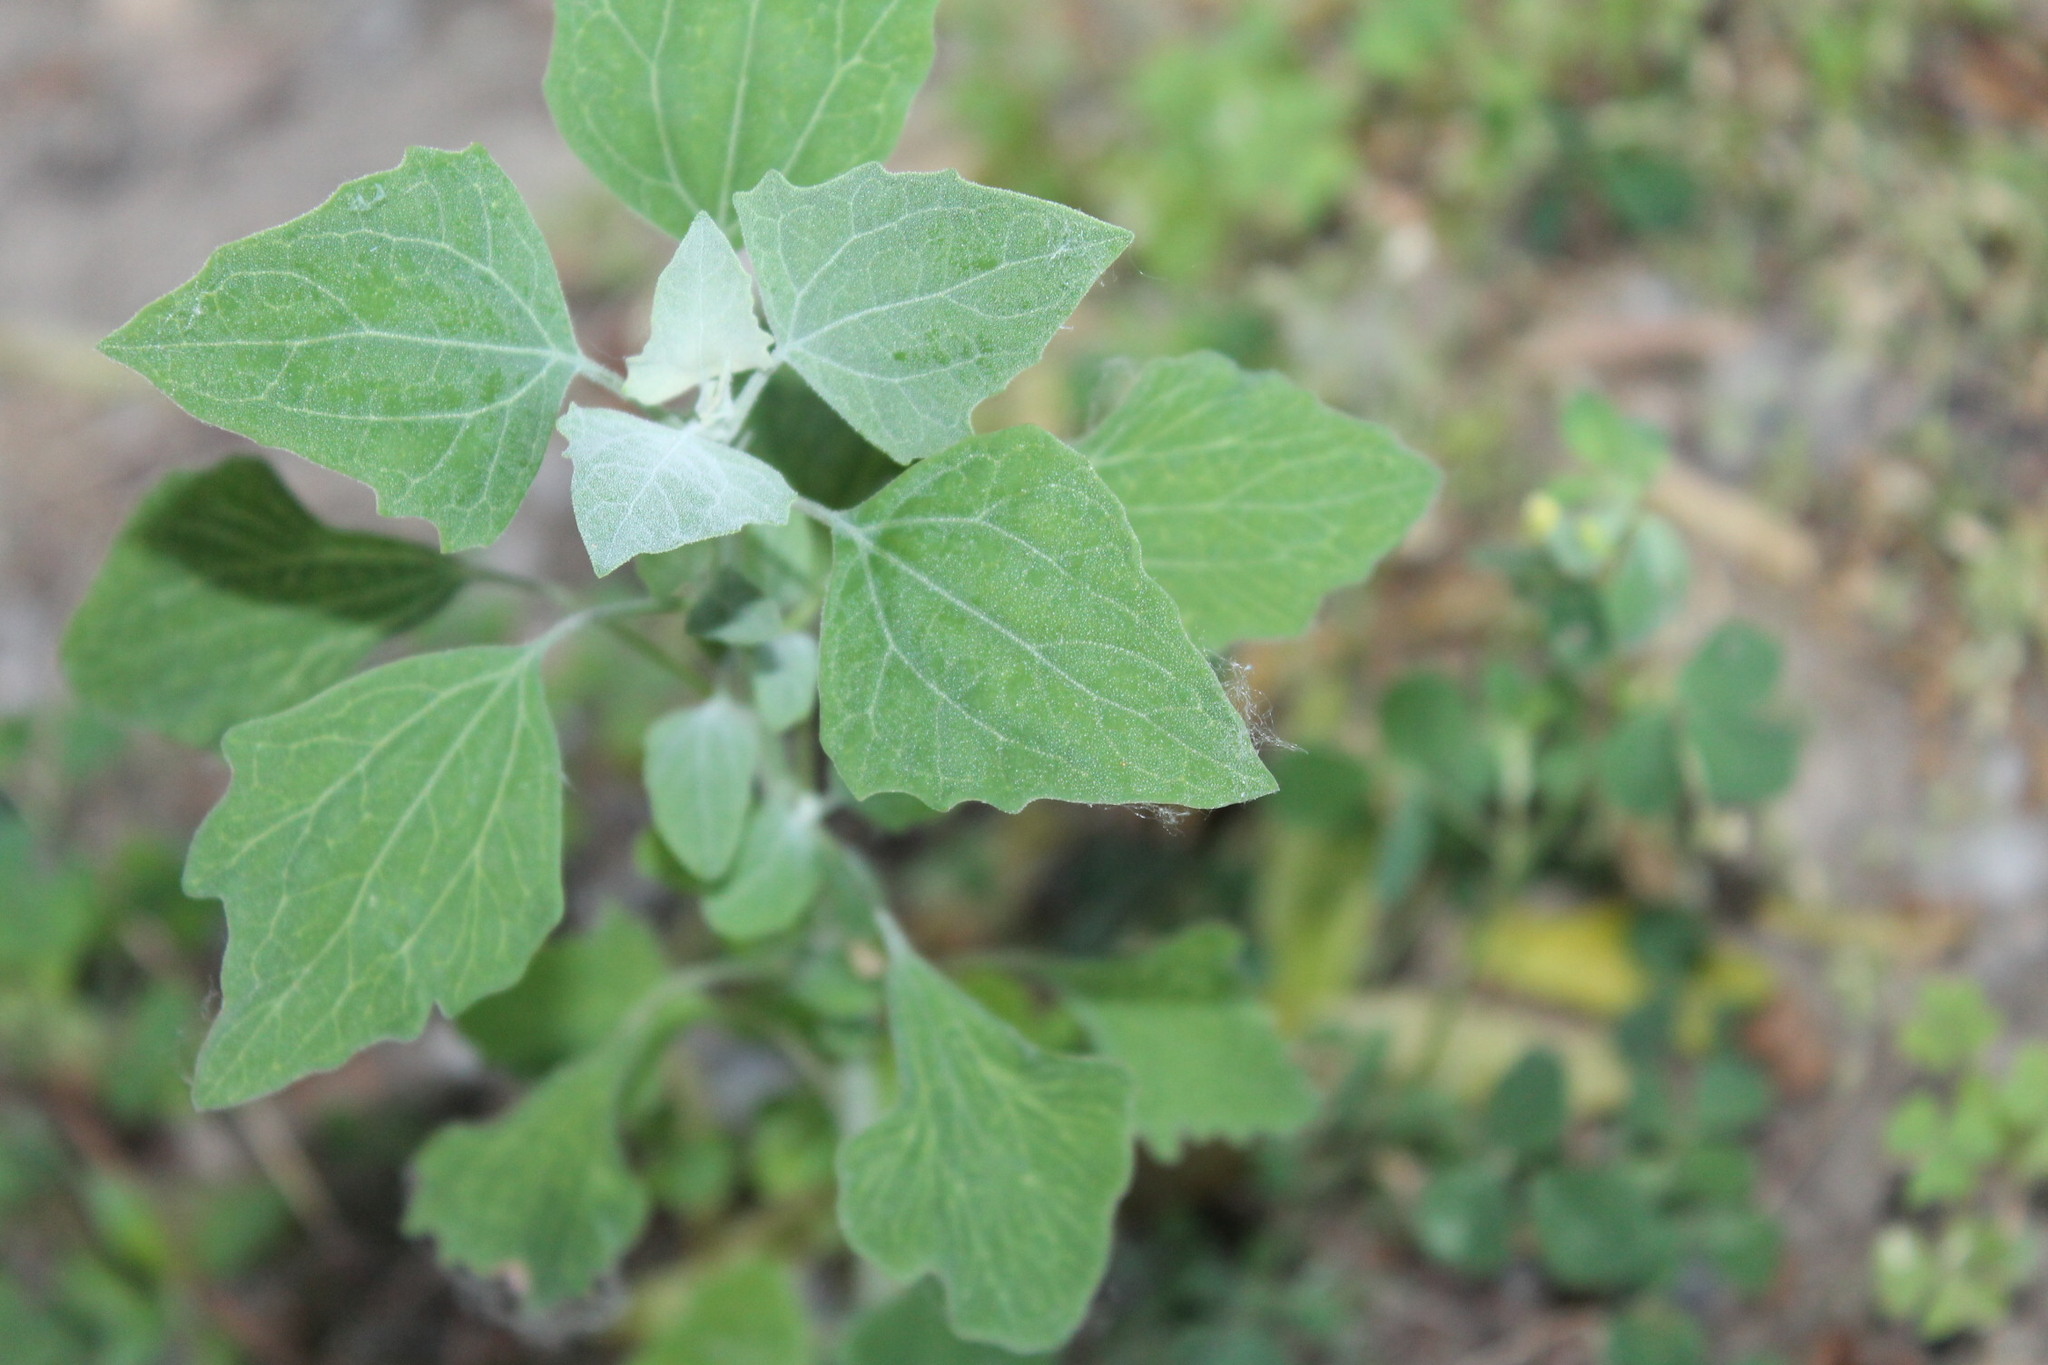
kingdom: Plantae
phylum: Tracheophyta
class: Magnoliopsida
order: Caryophyllales
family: Amaranthaceae
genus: Chenopodium
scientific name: Chenopodium album
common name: Fat-hen
